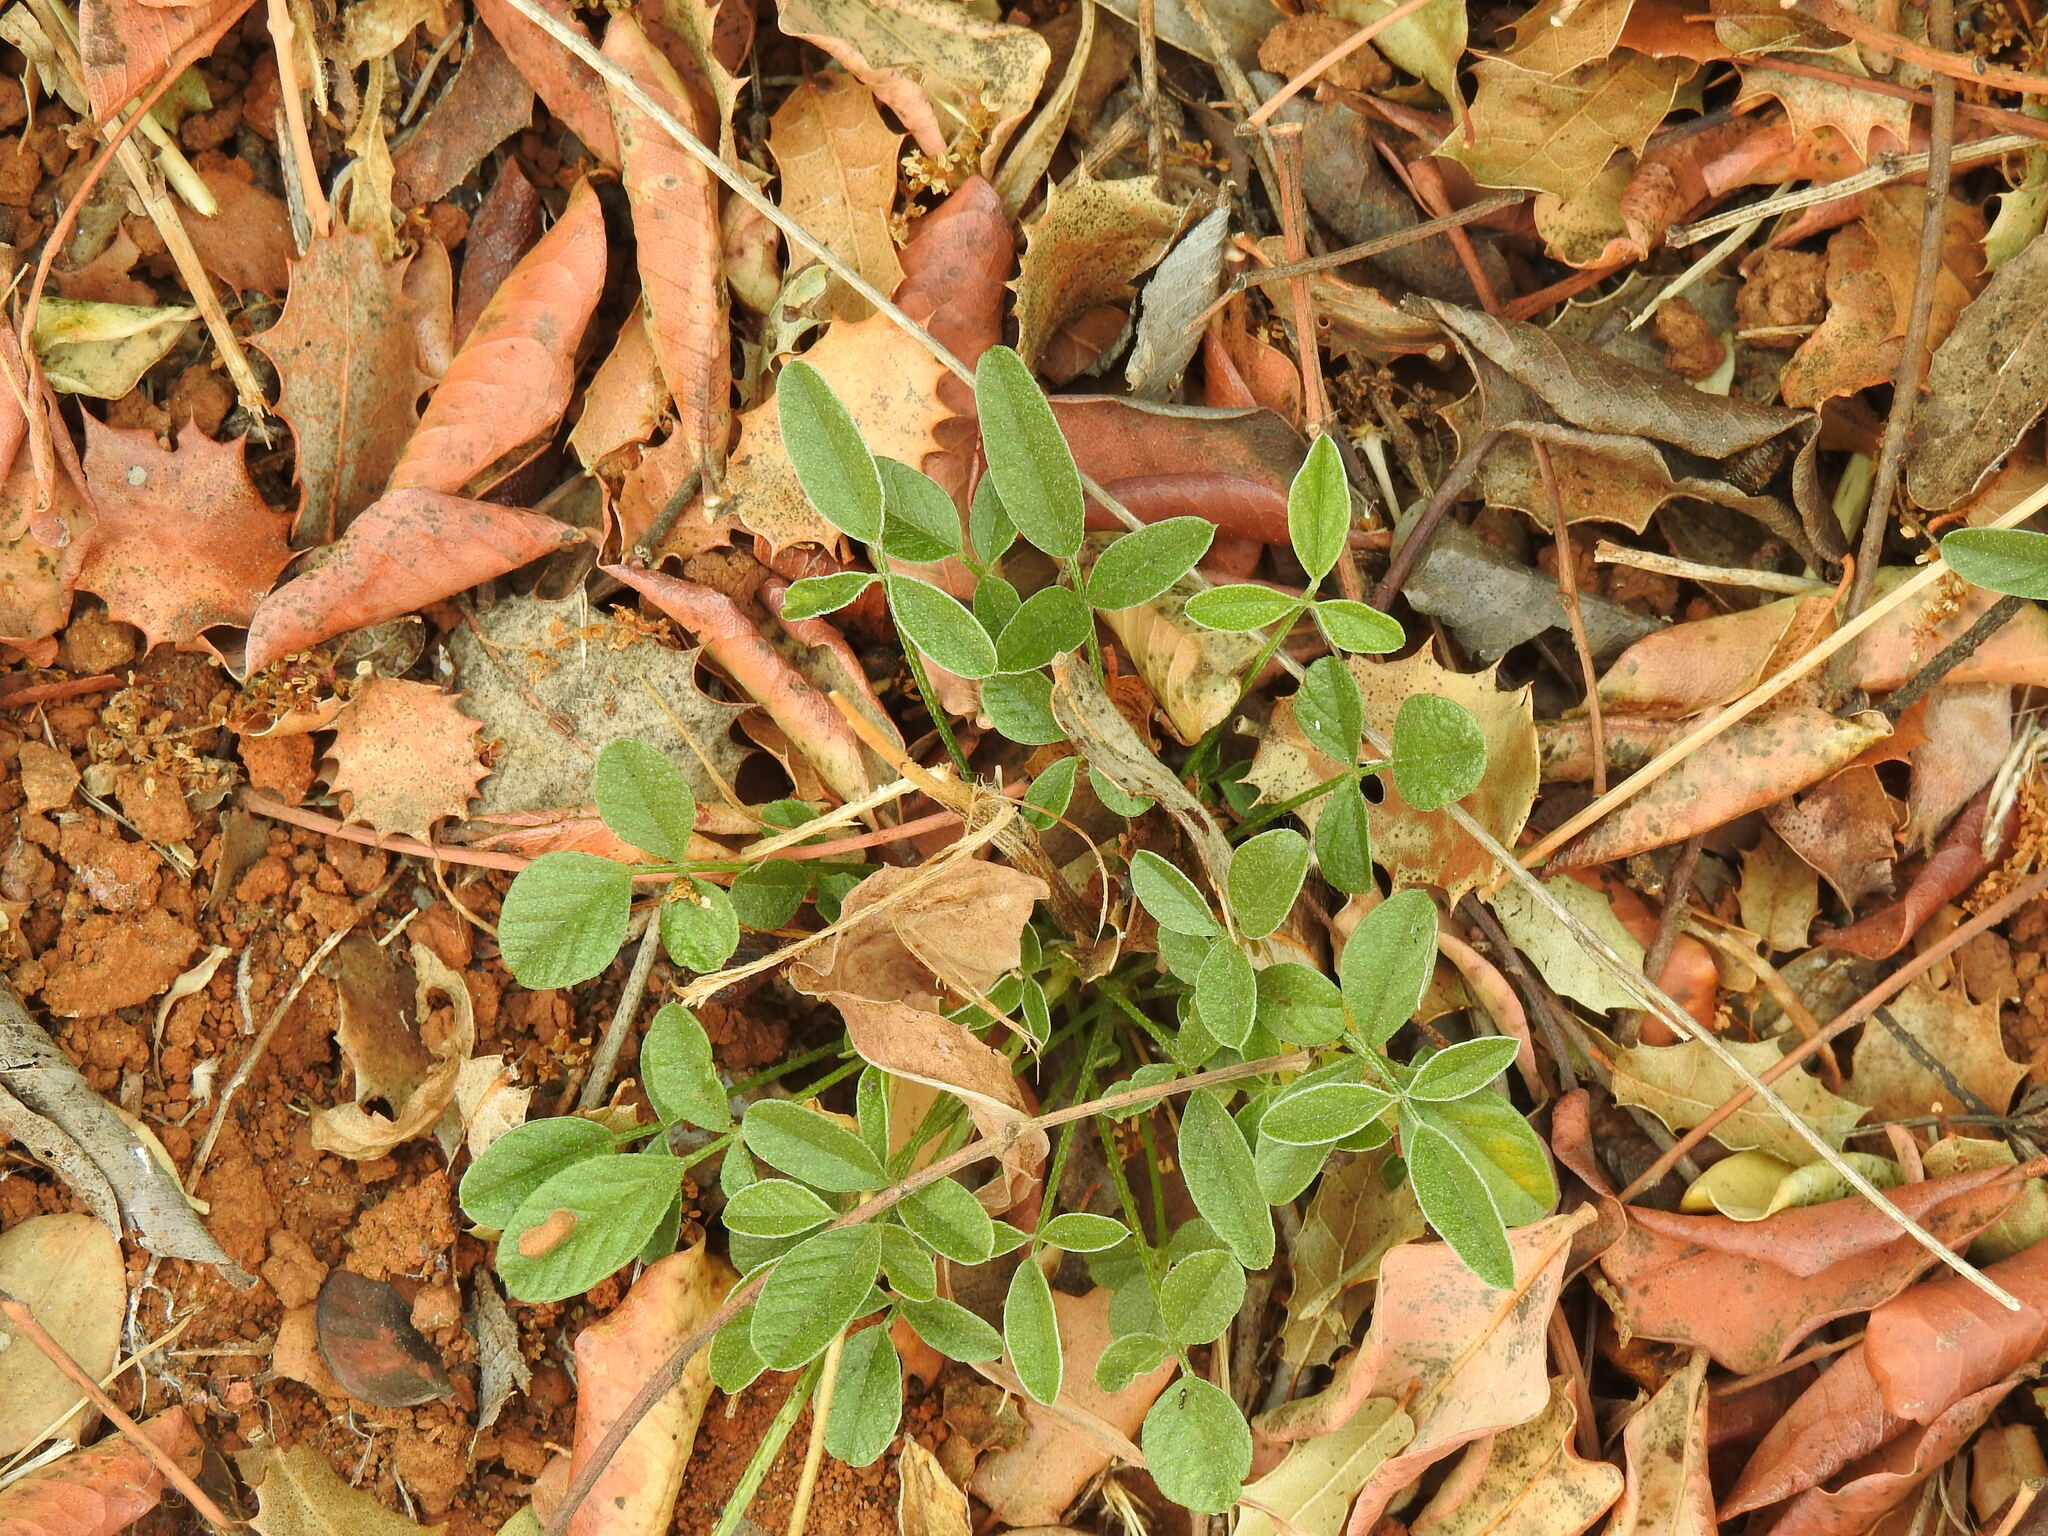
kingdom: Plantae
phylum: Tracheophyta
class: Magnoliopsida
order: Fabales
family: Fabaceae
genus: Bituminaria
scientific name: Bituminaria bituminosa
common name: Arabian pea
